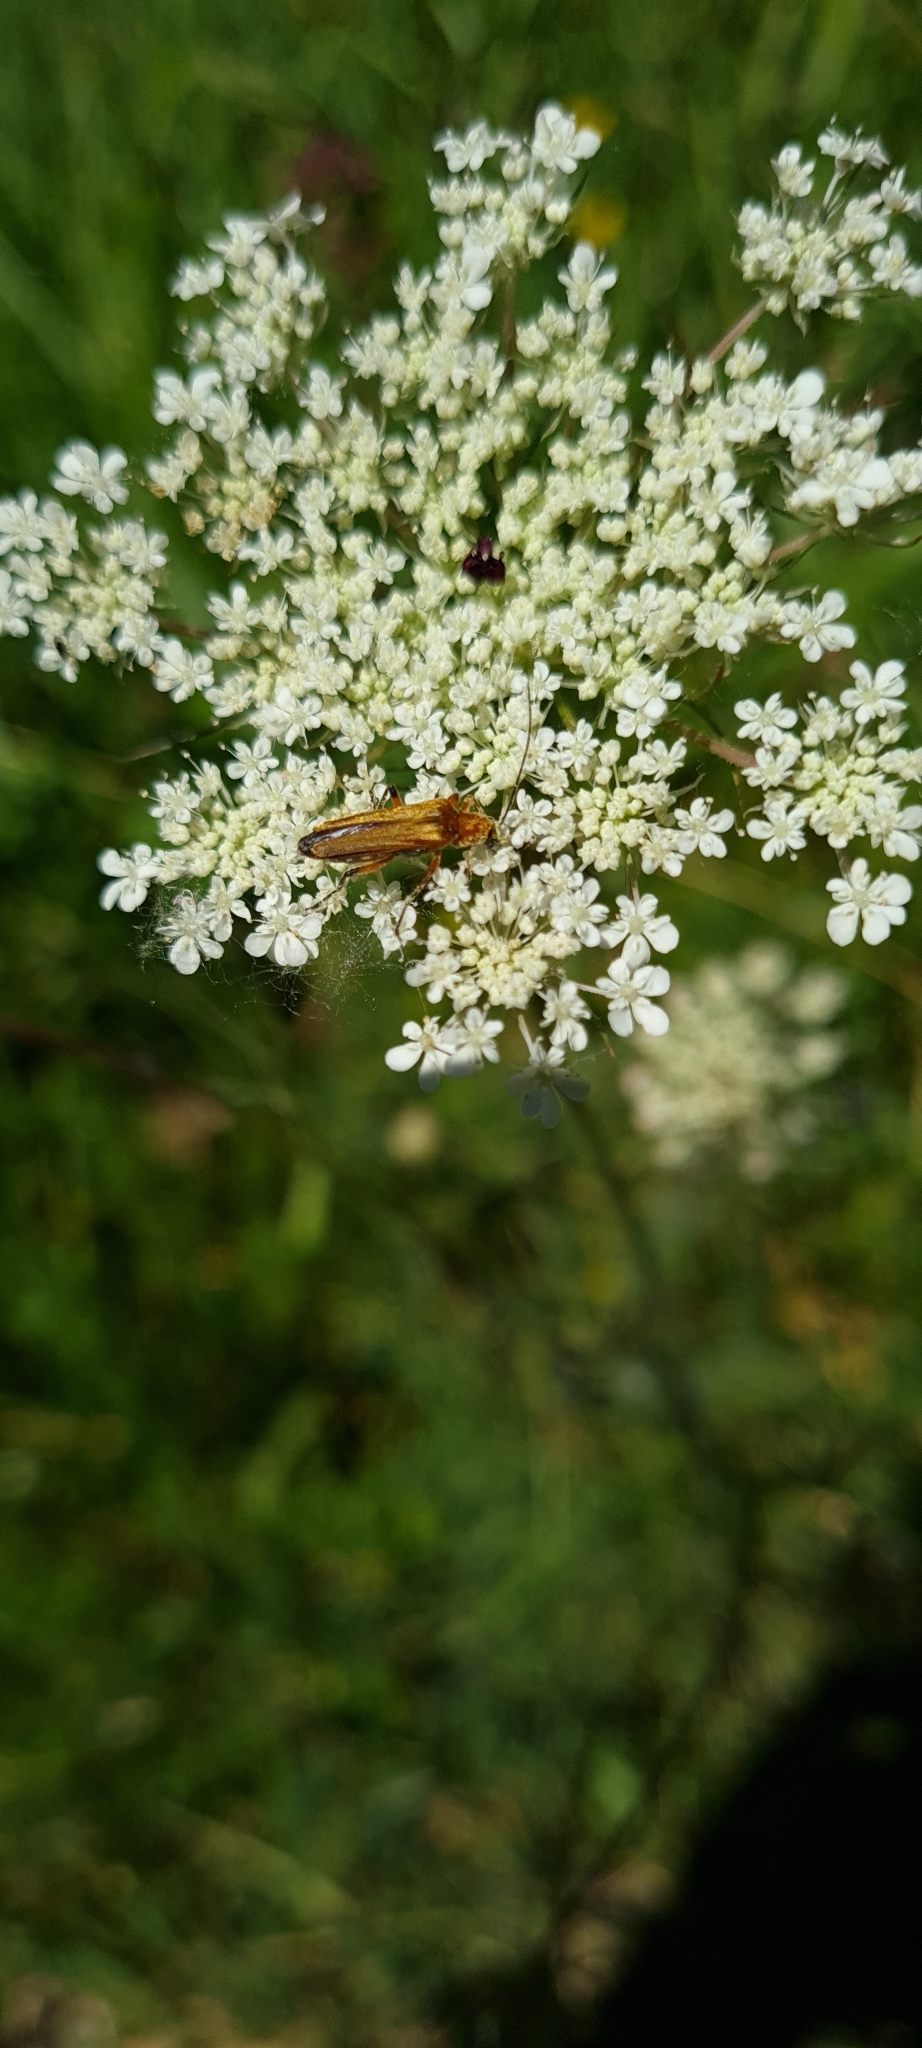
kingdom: Animalia
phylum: Arthropoda
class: Insecta
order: Coleoptera
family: Oedemeridae
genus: Oedemera
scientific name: Oedemera podagrariae
